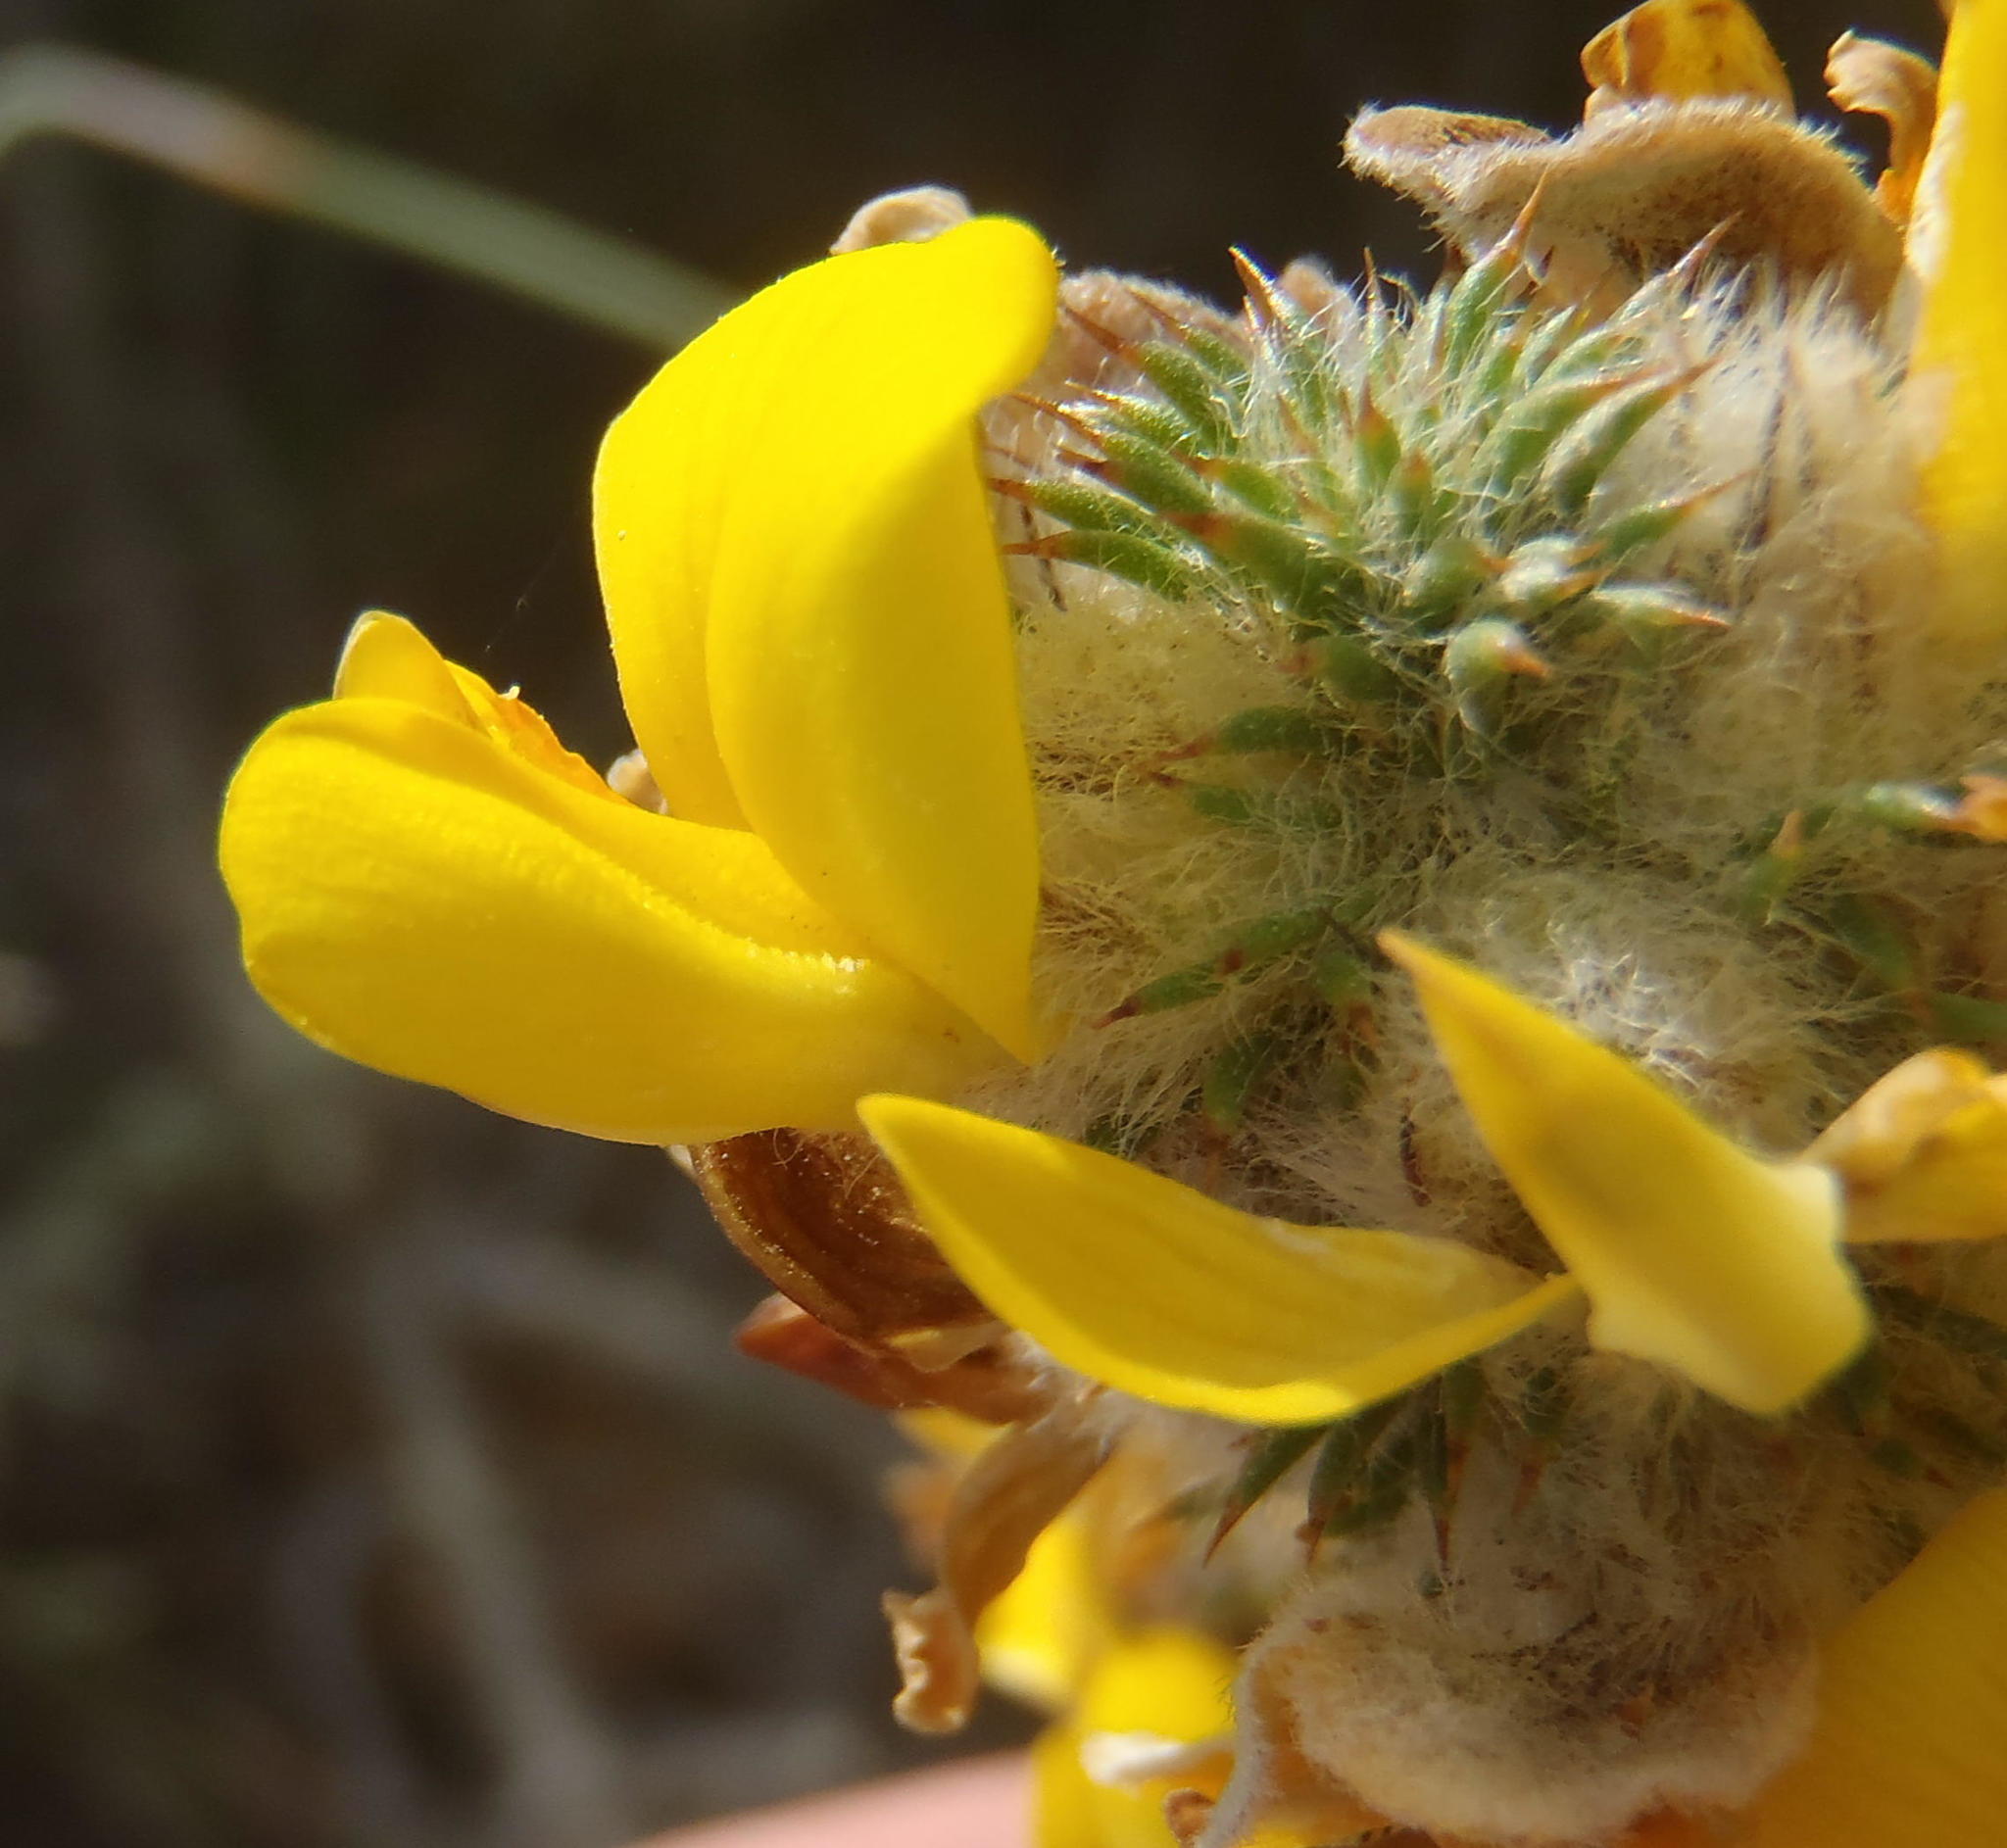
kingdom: Plantae
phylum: Tracheophyta
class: Magnoliopsida
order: Fabales
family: Fabaceae
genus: Aspalathus
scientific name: Aspalathus shawii
